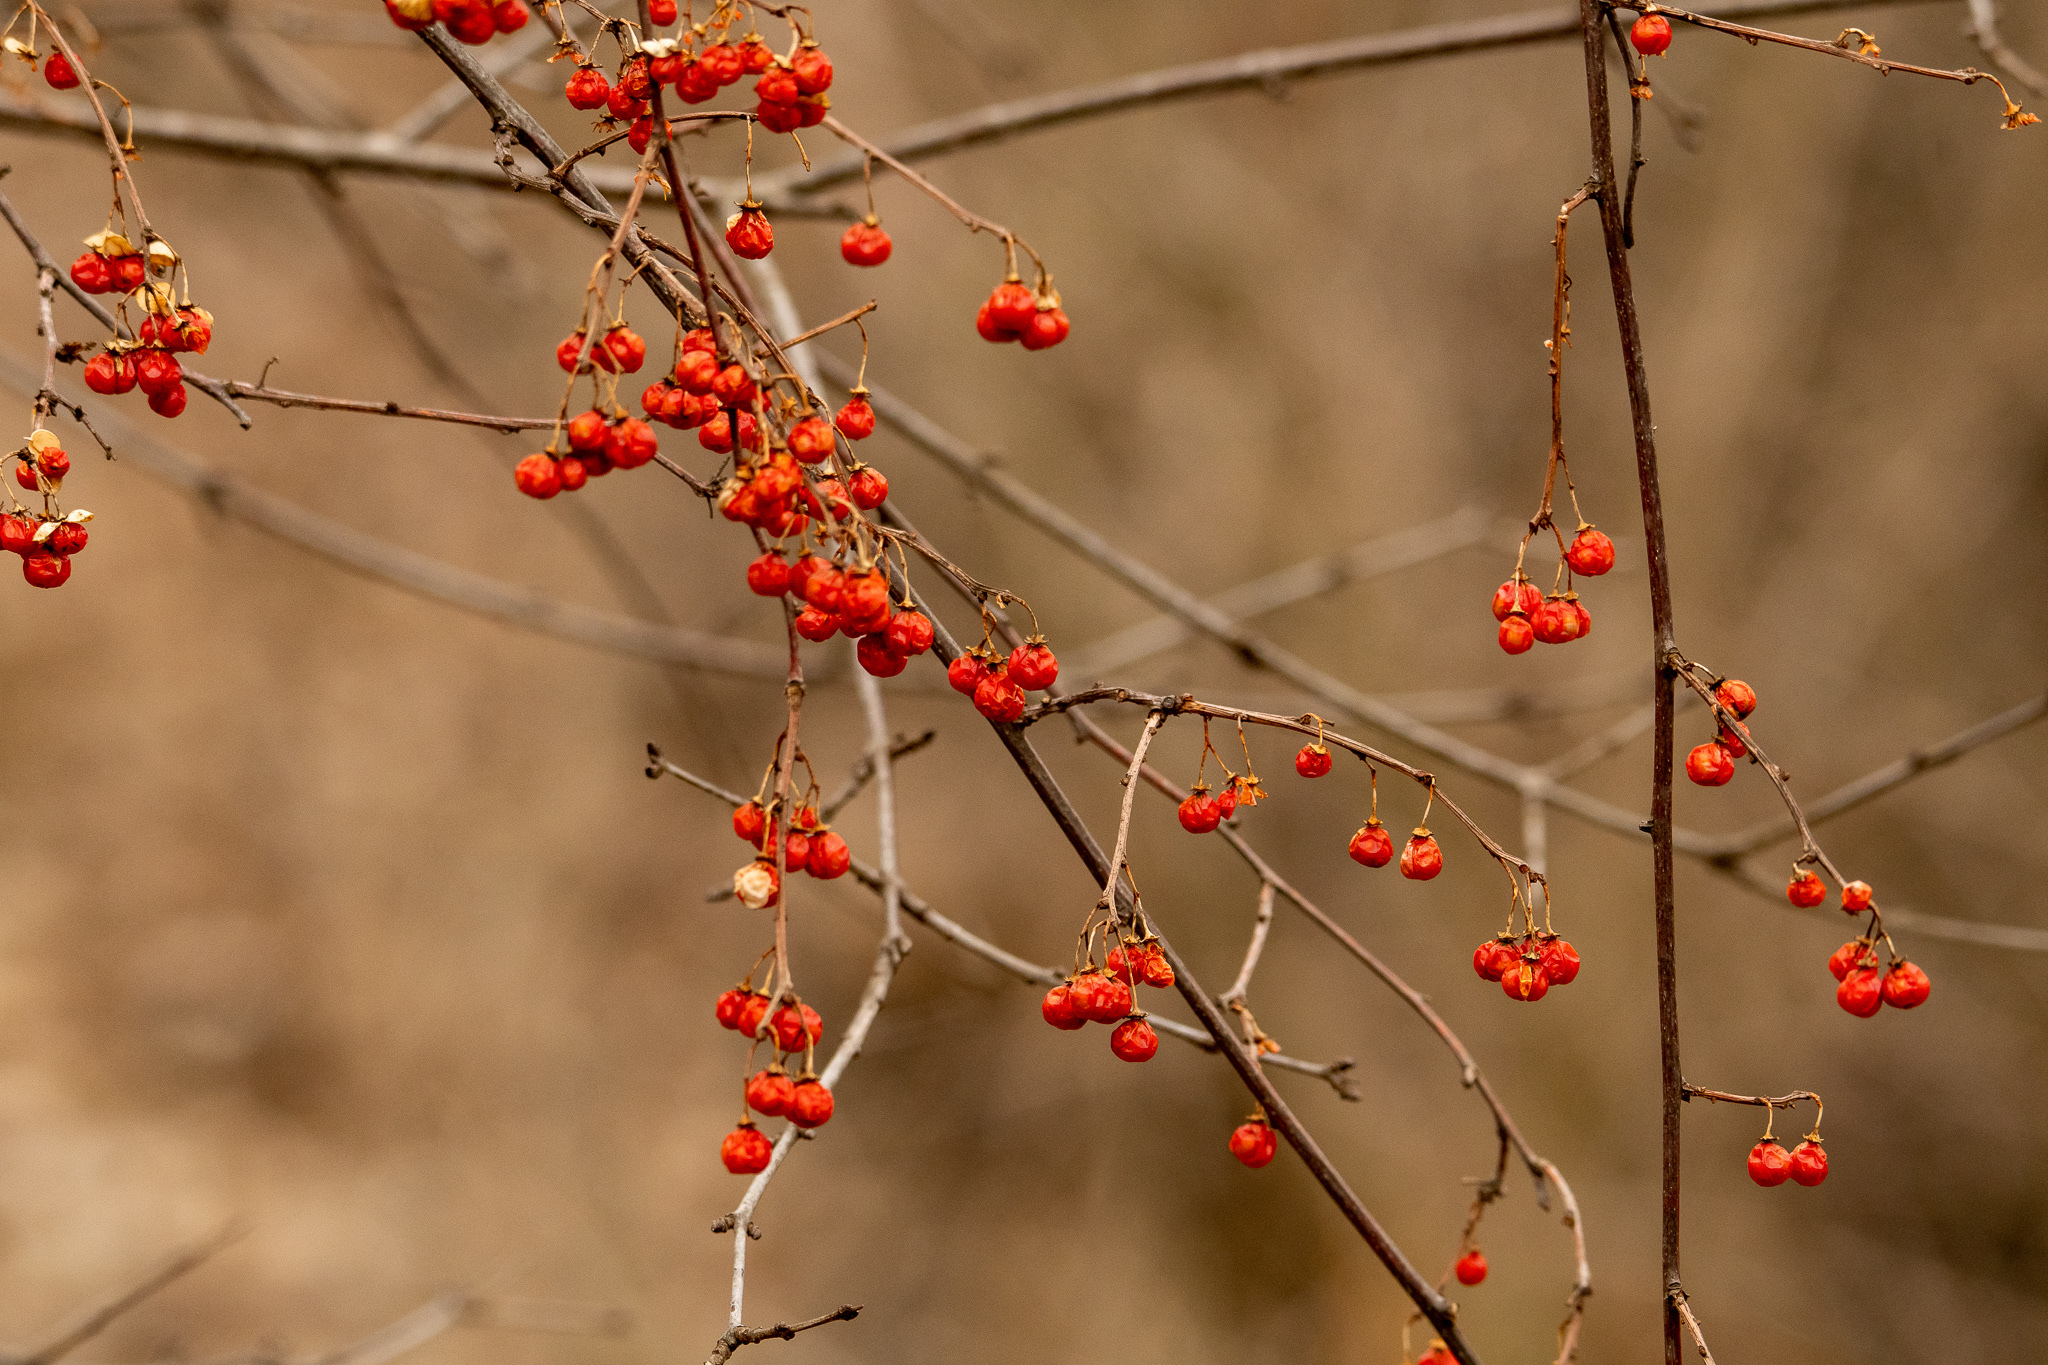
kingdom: Plantae
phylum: Tracheophyta
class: Magnoliopsida
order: Celastrales
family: Celastraceae
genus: Celastrus
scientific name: Celastrus orbiculatus
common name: Oriental bittersweet
